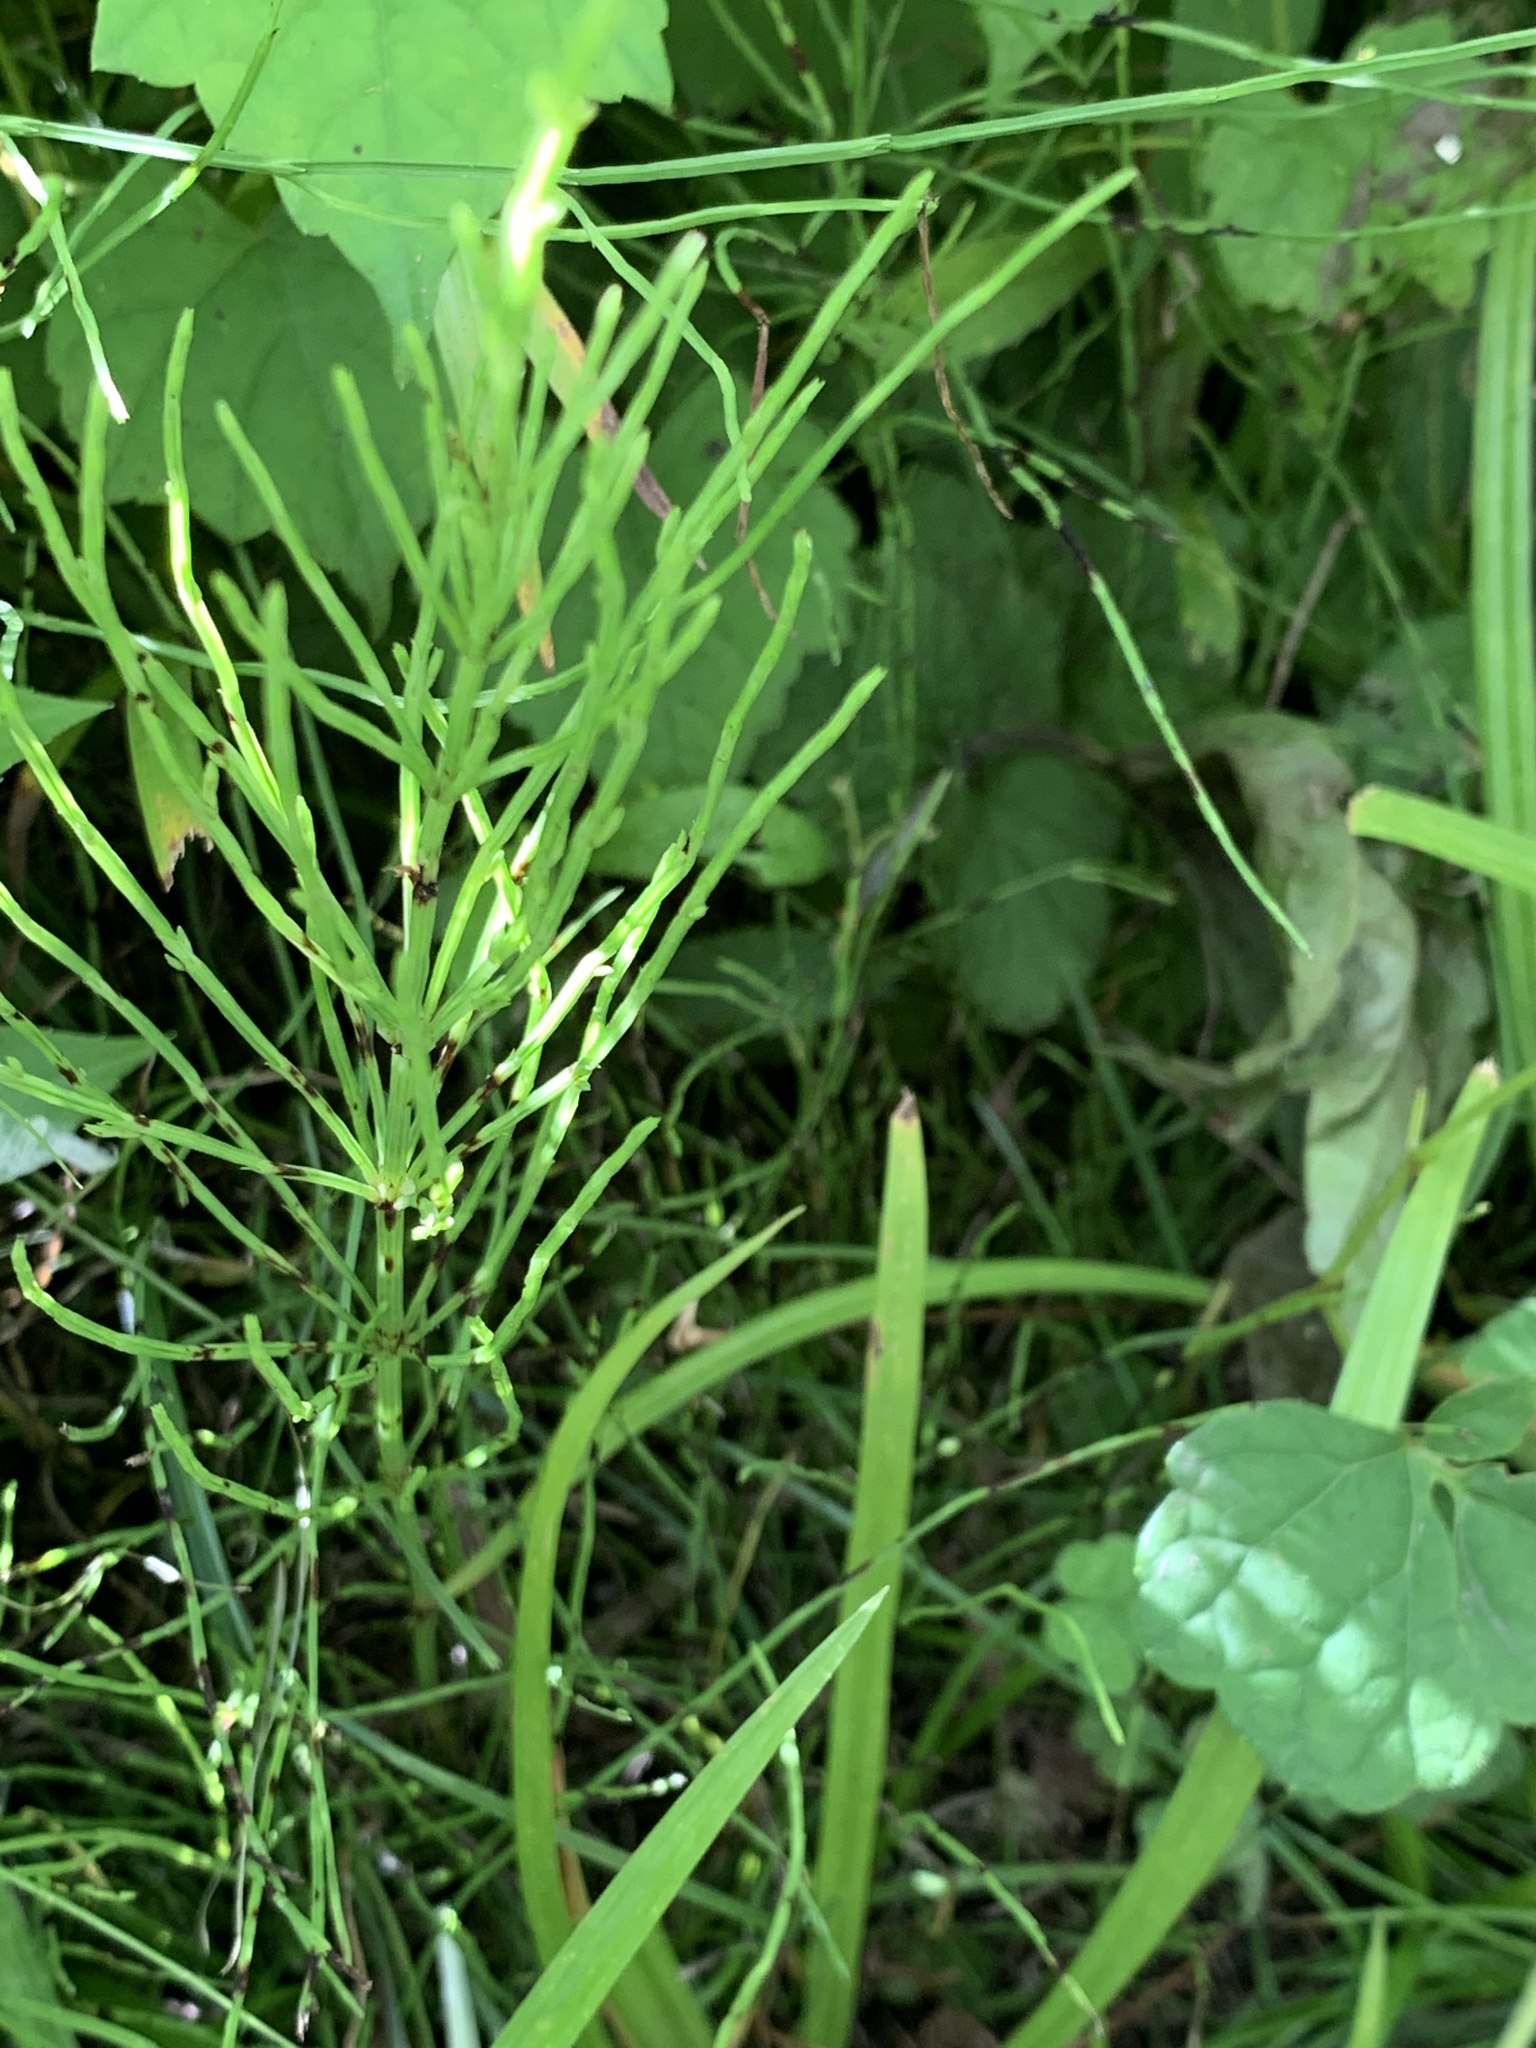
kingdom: Plantae
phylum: Tracheophyta
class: Polypodiopsida
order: Equisetales
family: Equisetaceae
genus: Equisetum
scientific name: Equisetum arvense
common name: Field horsetail
